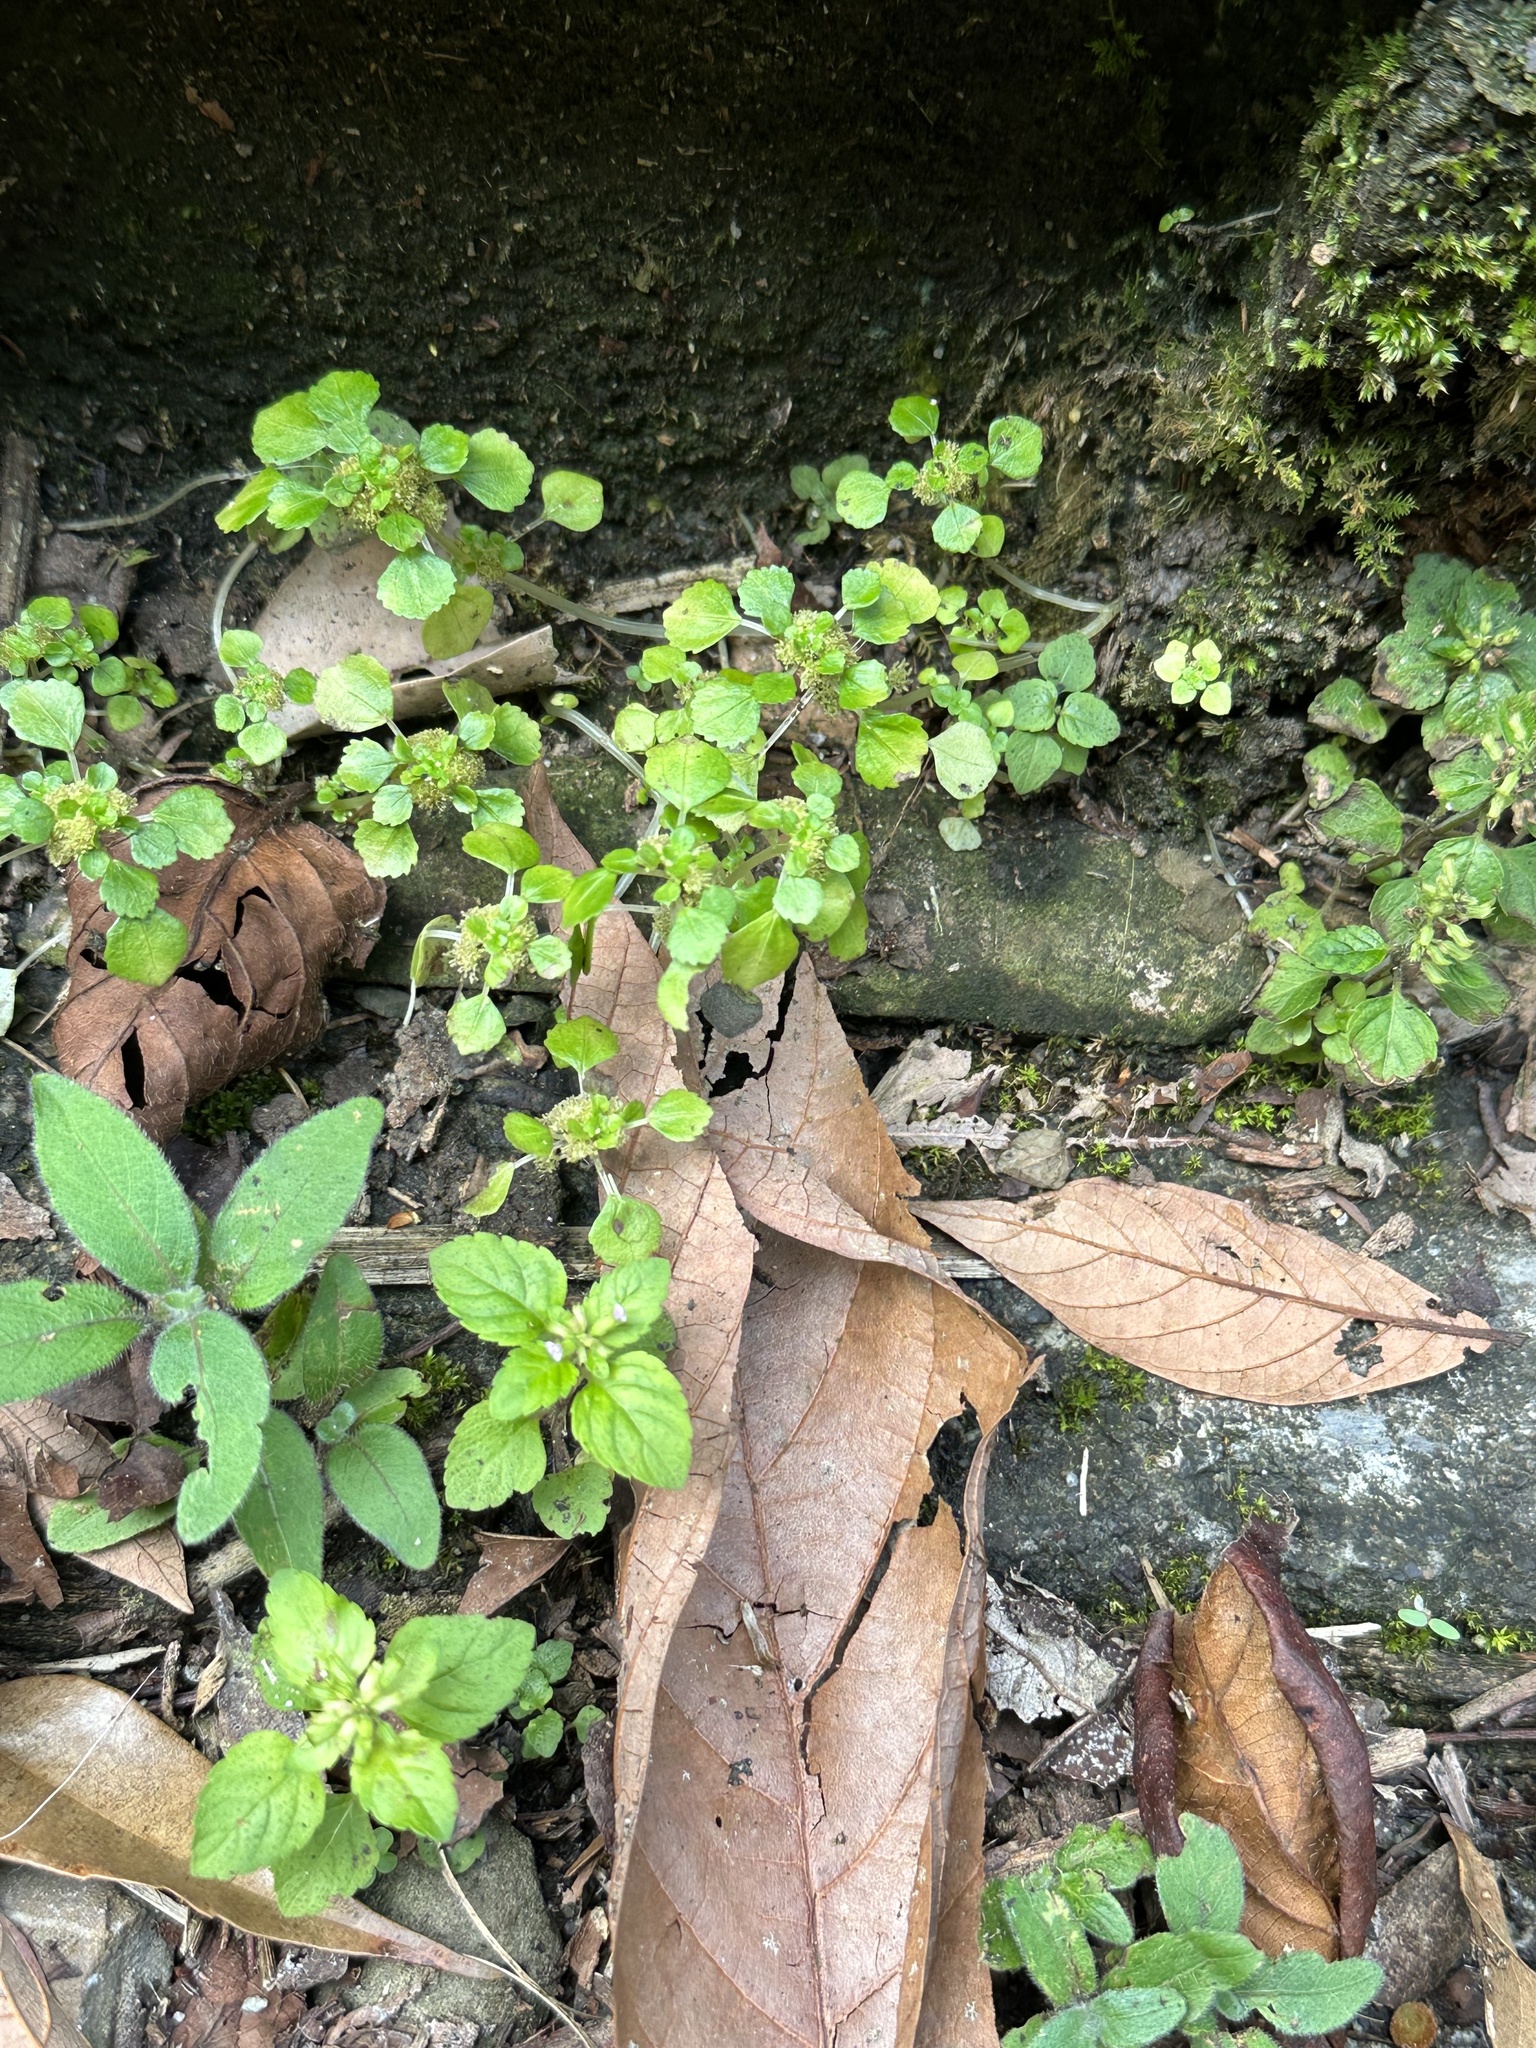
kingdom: Plantae
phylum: Tracheophyta
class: Magnoliopsida
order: Rosales
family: Urticaceae
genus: Pilea
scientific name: Pilea peploides
